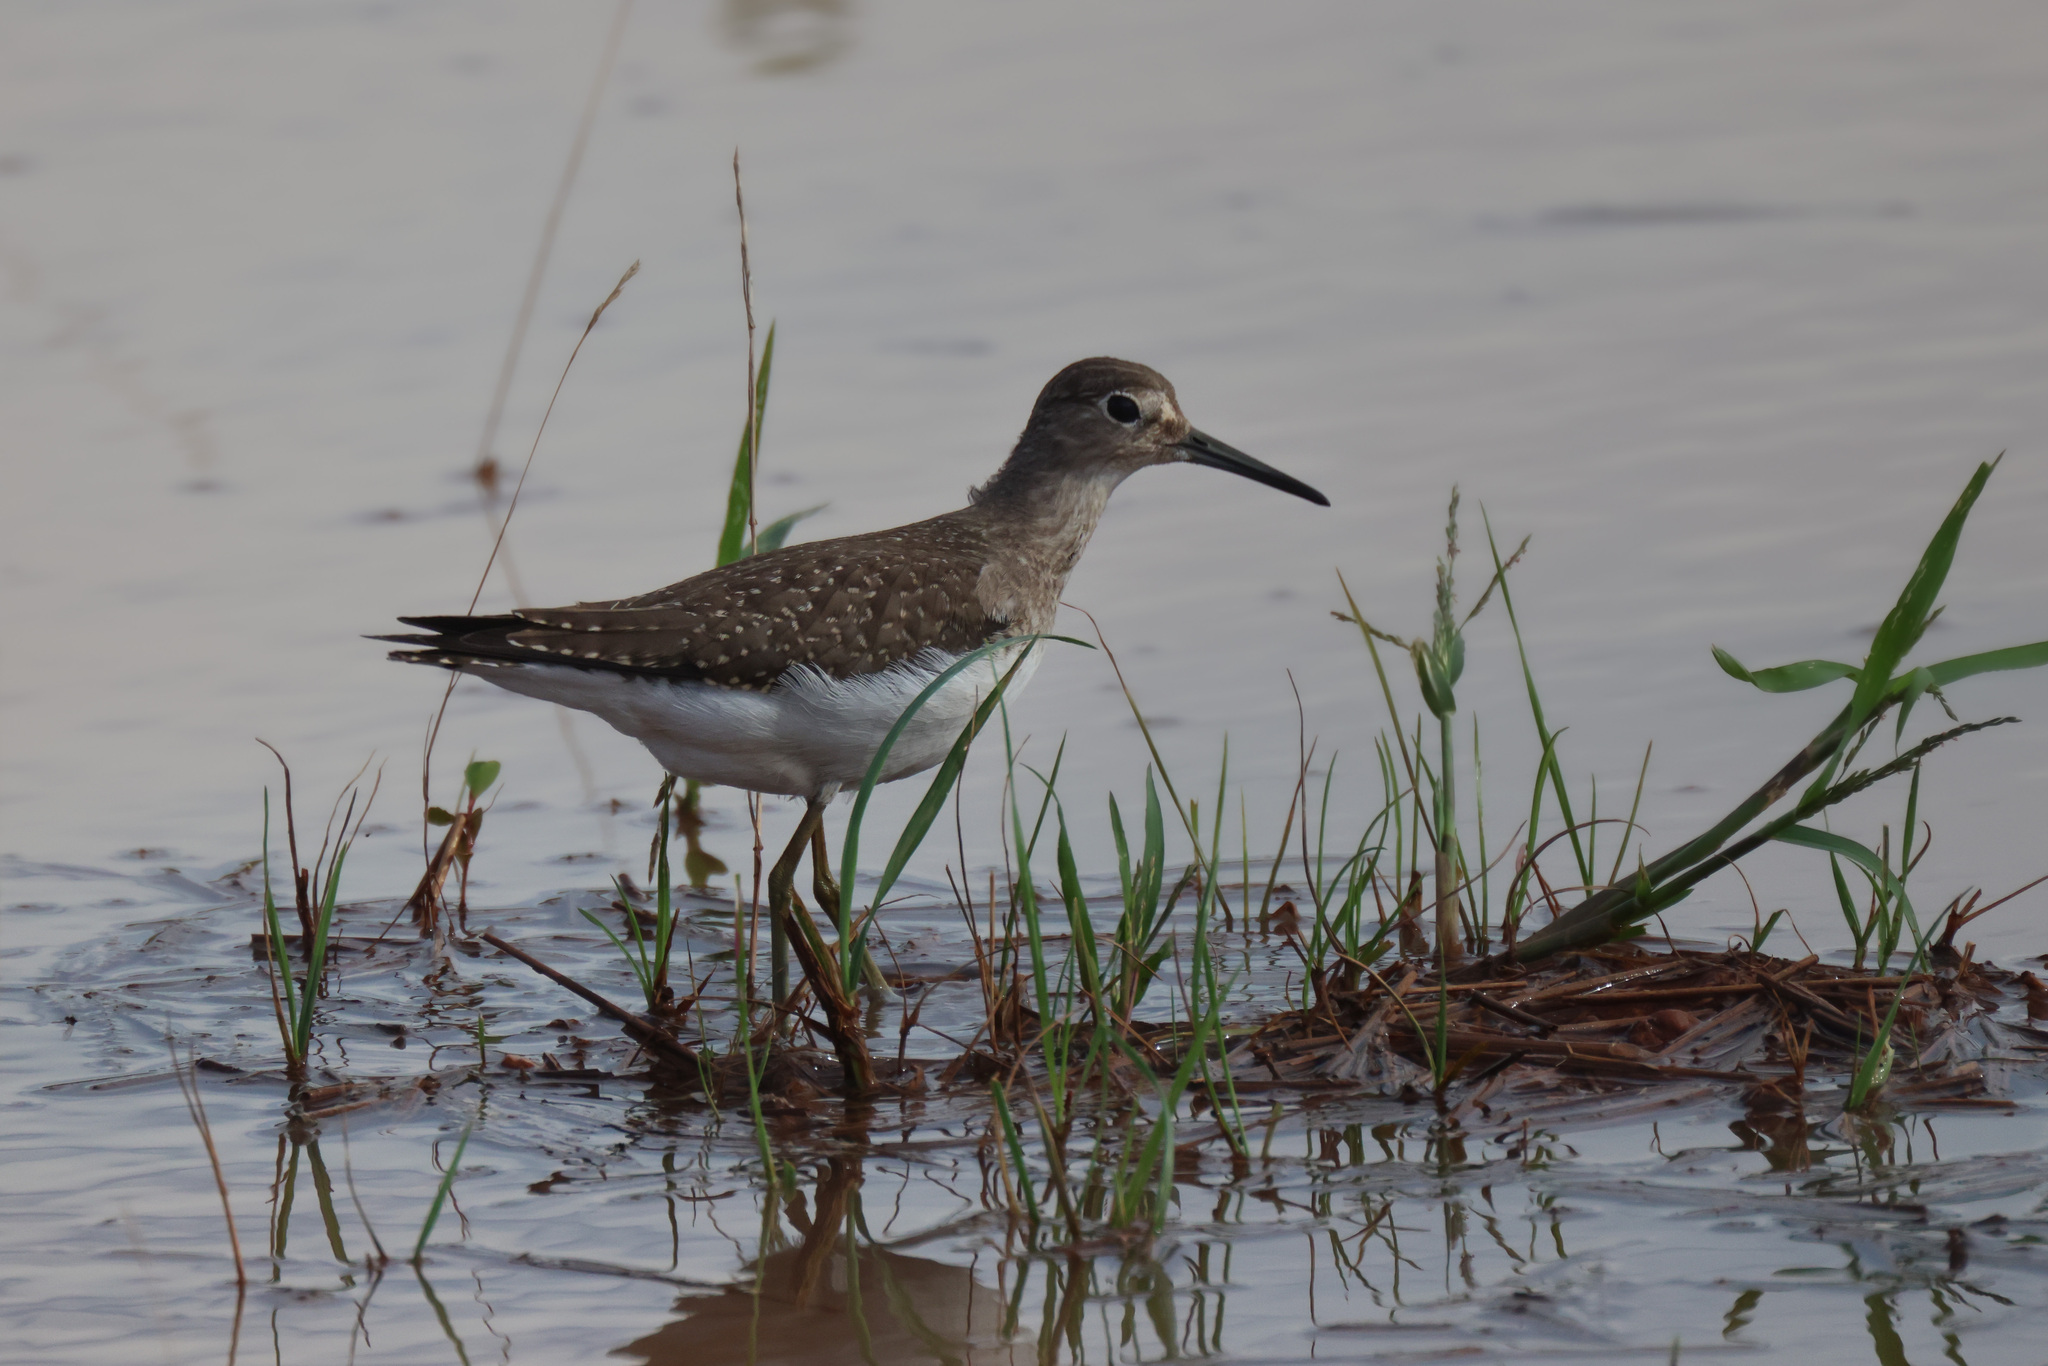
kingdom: Animalia
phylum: Chordata
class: Aves
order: Charadriiformes
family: Scolopacidae
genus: Tringa
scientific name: Tringa solitaria
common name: Solitary sandpiper
